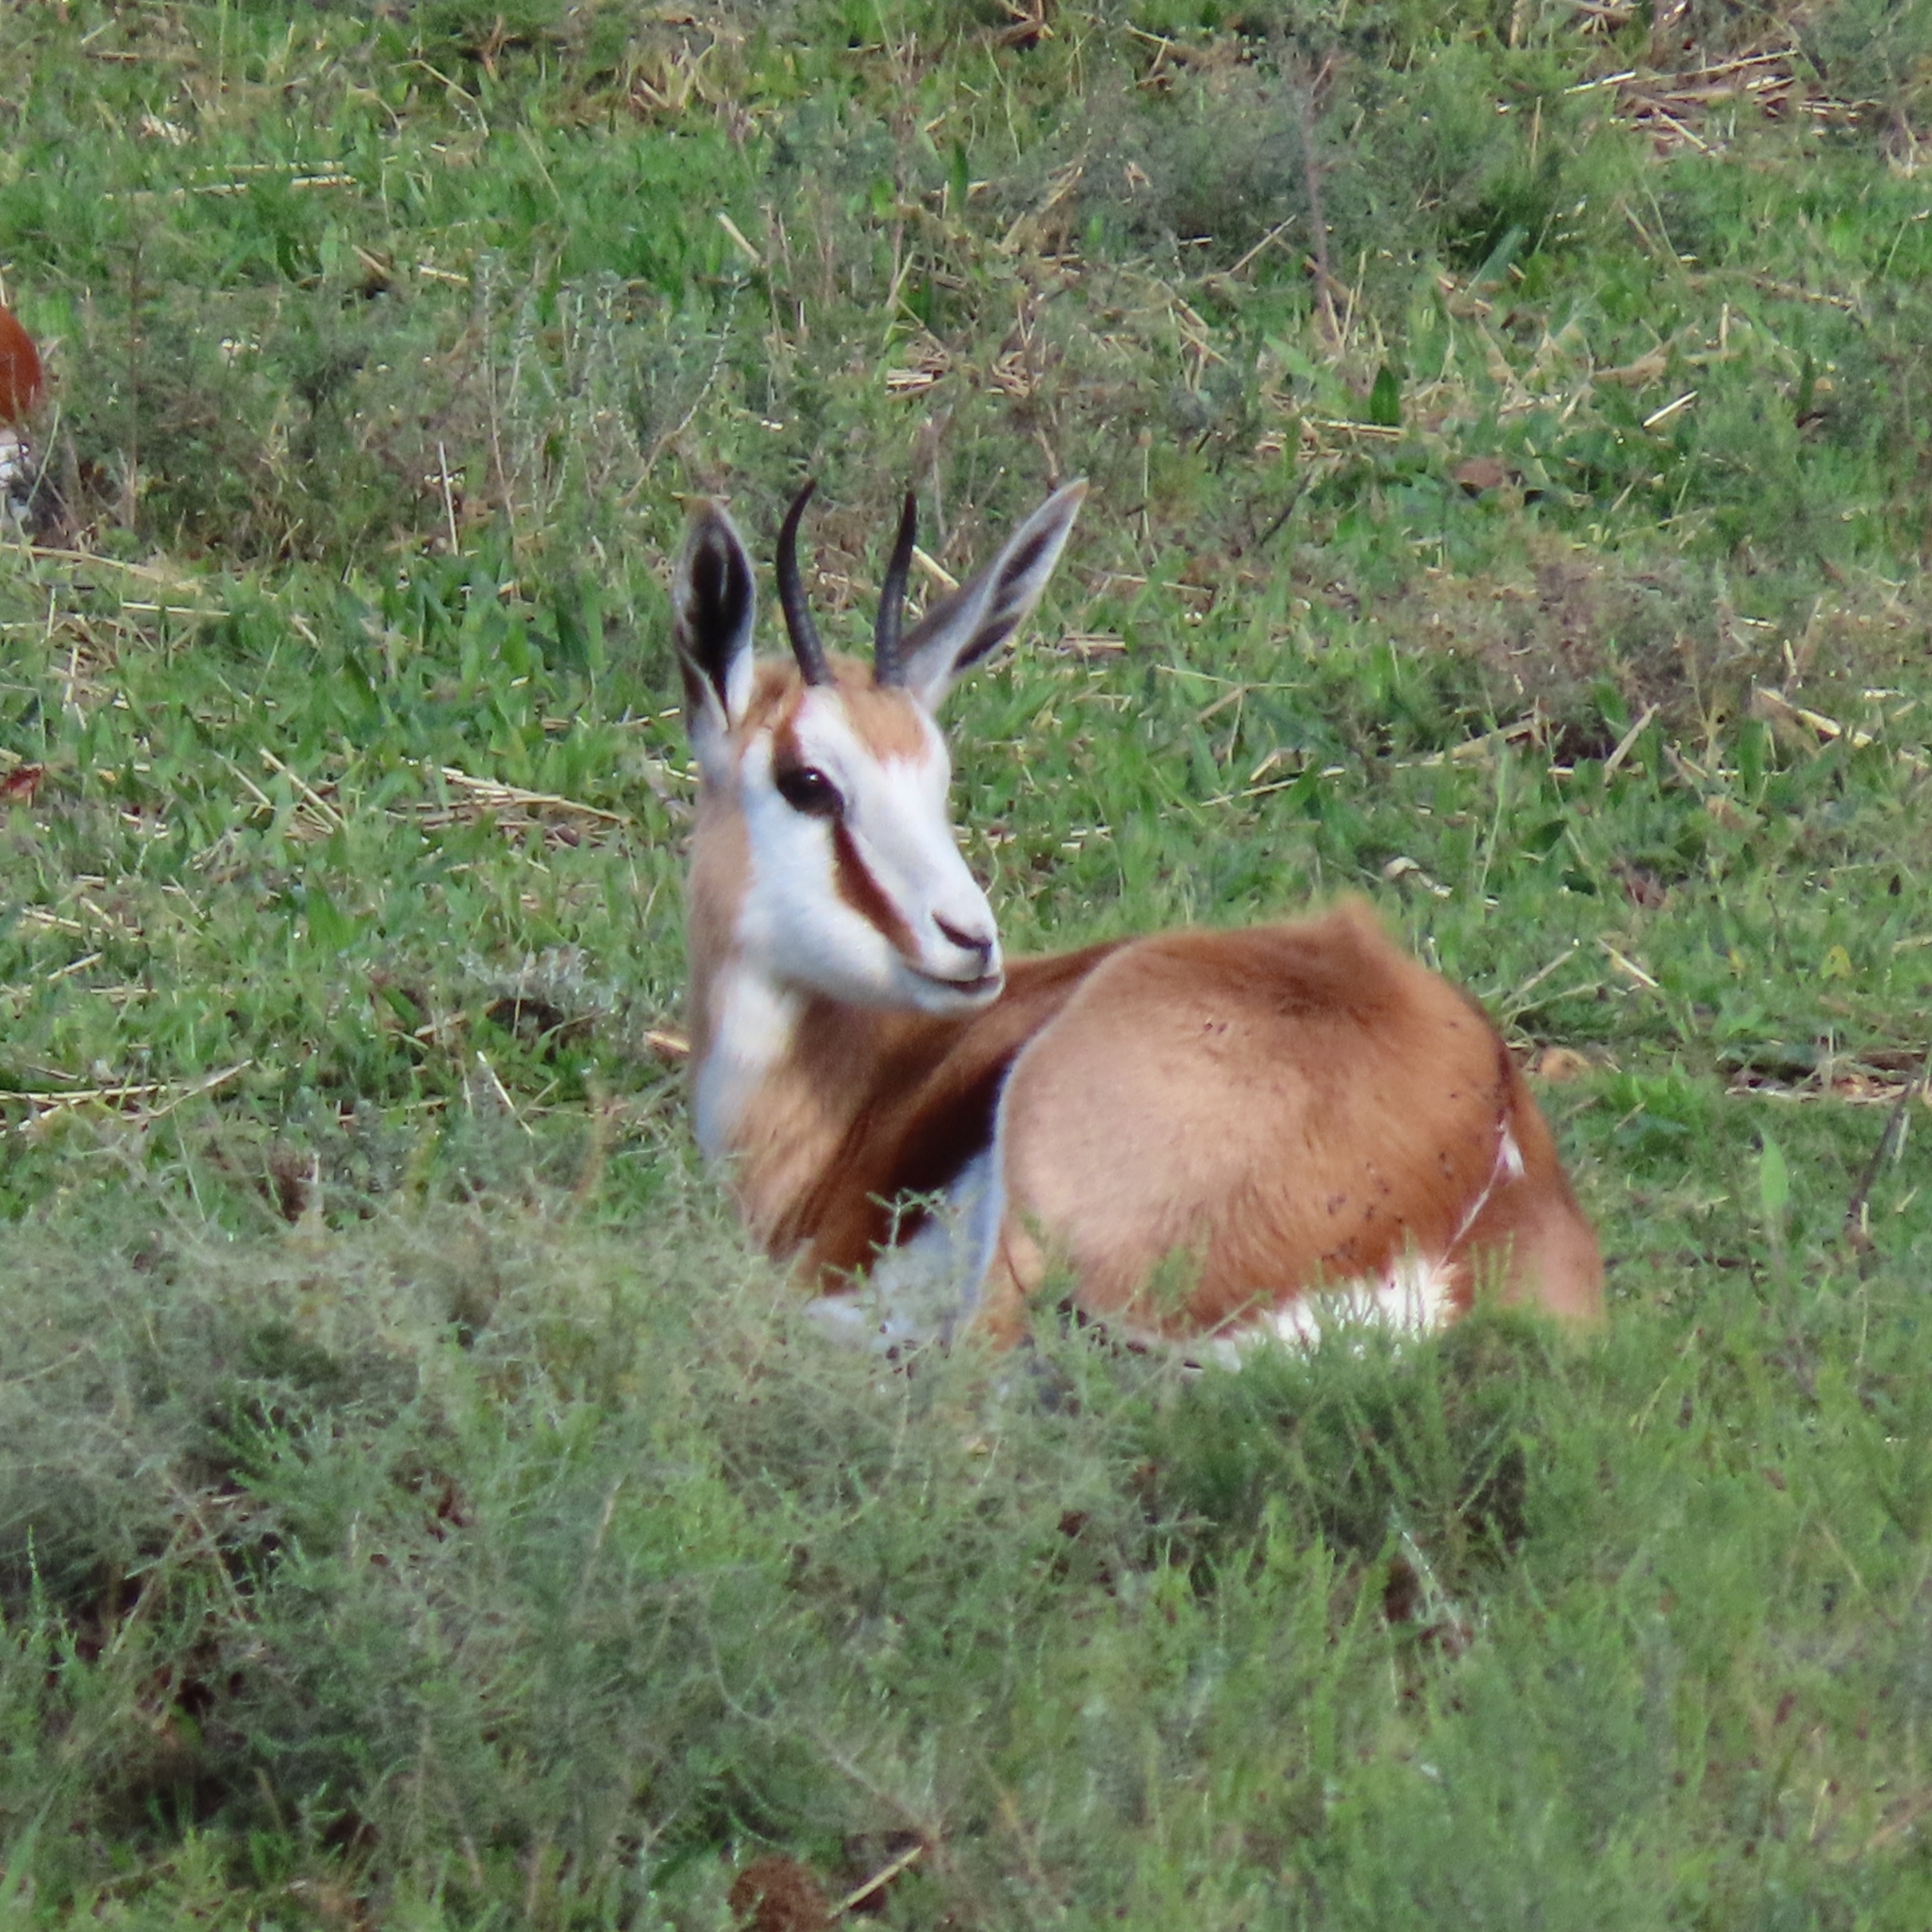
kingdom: Animalia
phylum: Chordata
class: Mammalia
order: Artiodactyla
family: Bovidae
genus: Antidorcas
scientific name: Antidorcas marsupialis
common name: Springbok
